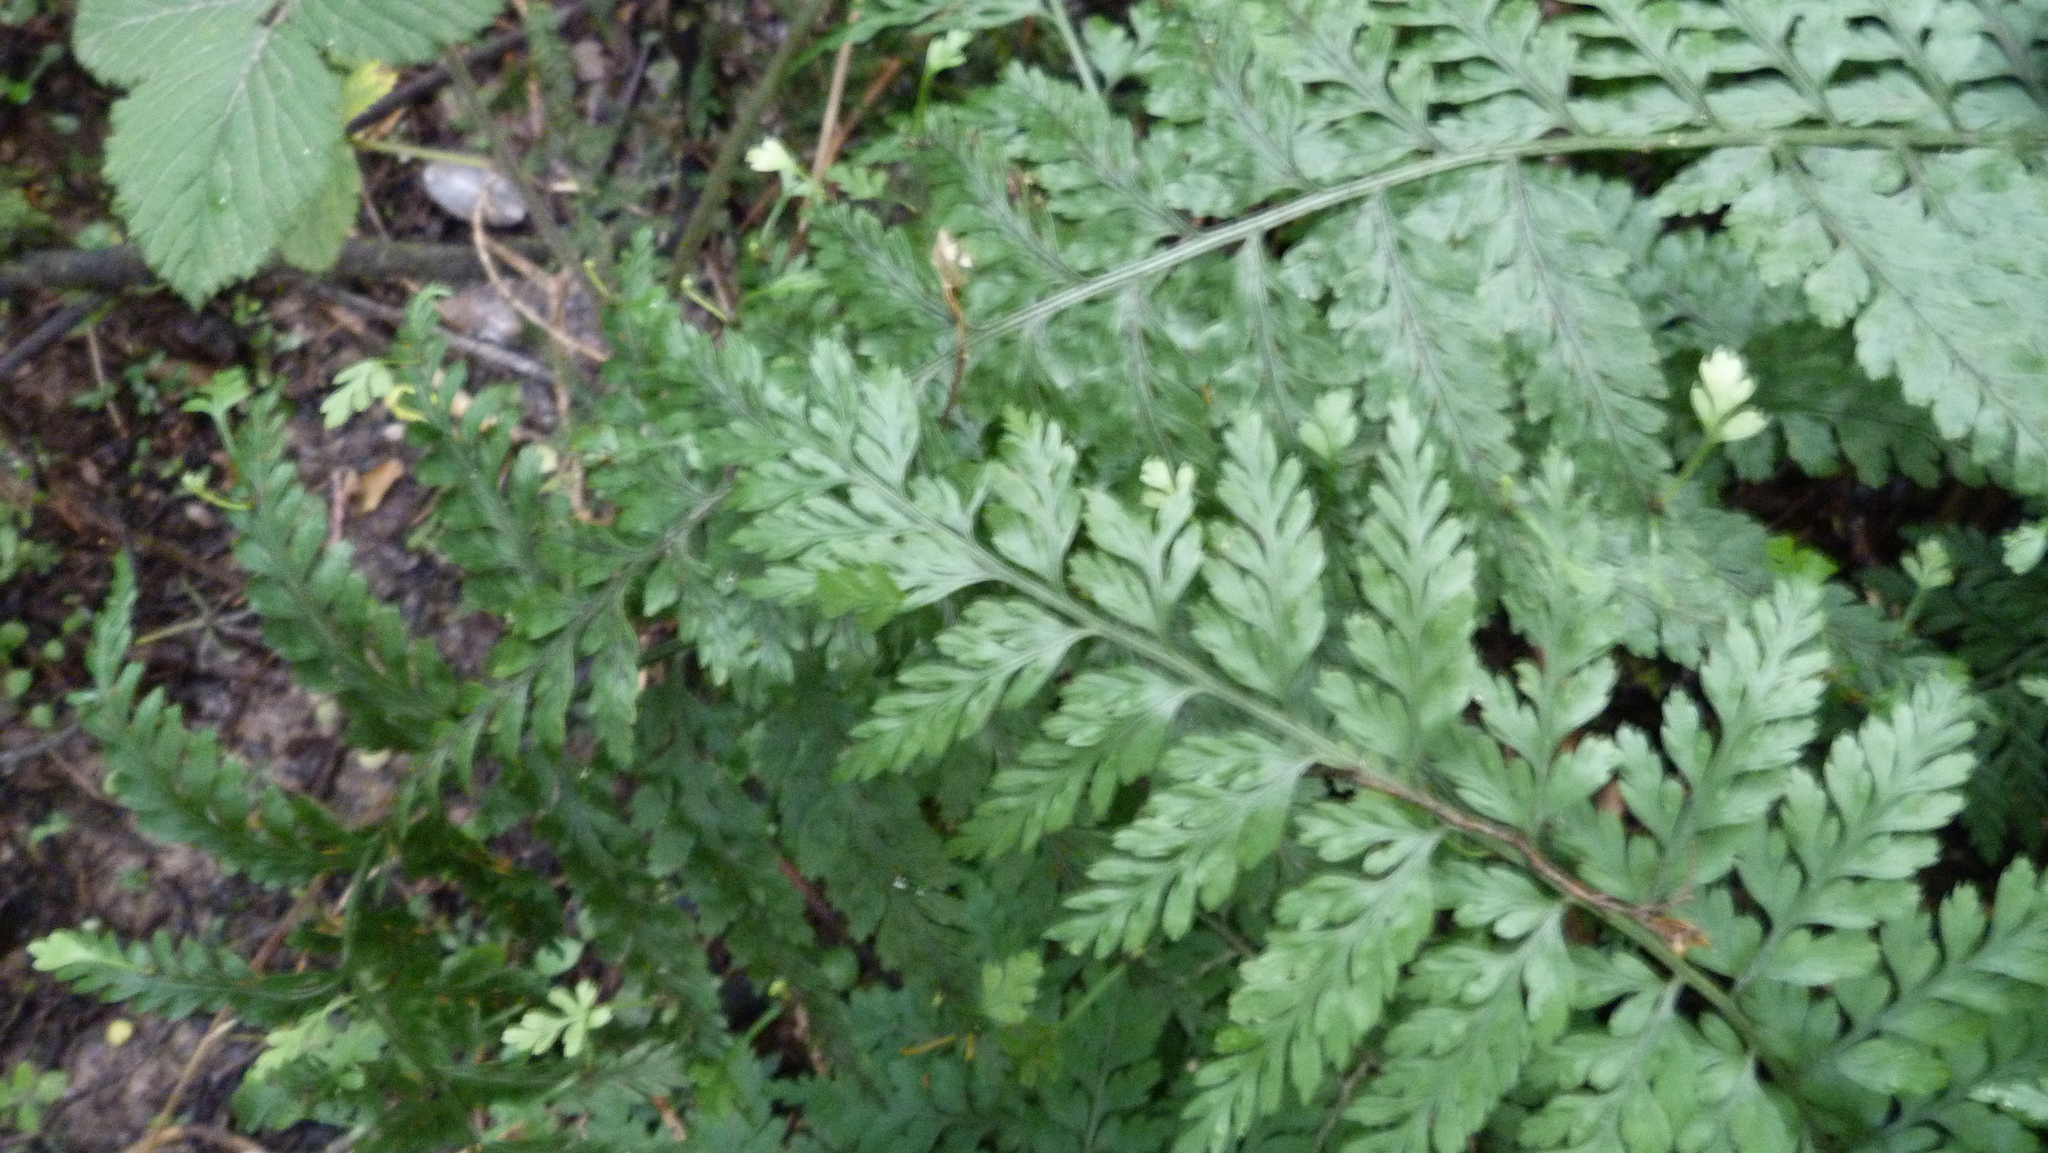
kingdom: Plantae
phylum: Tracheophyta
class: Polypodiopsida
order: Polypodiales
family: Aspleniaceae
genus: Asplenium
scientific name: Asplenium bulbiferum
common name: Mother fern
